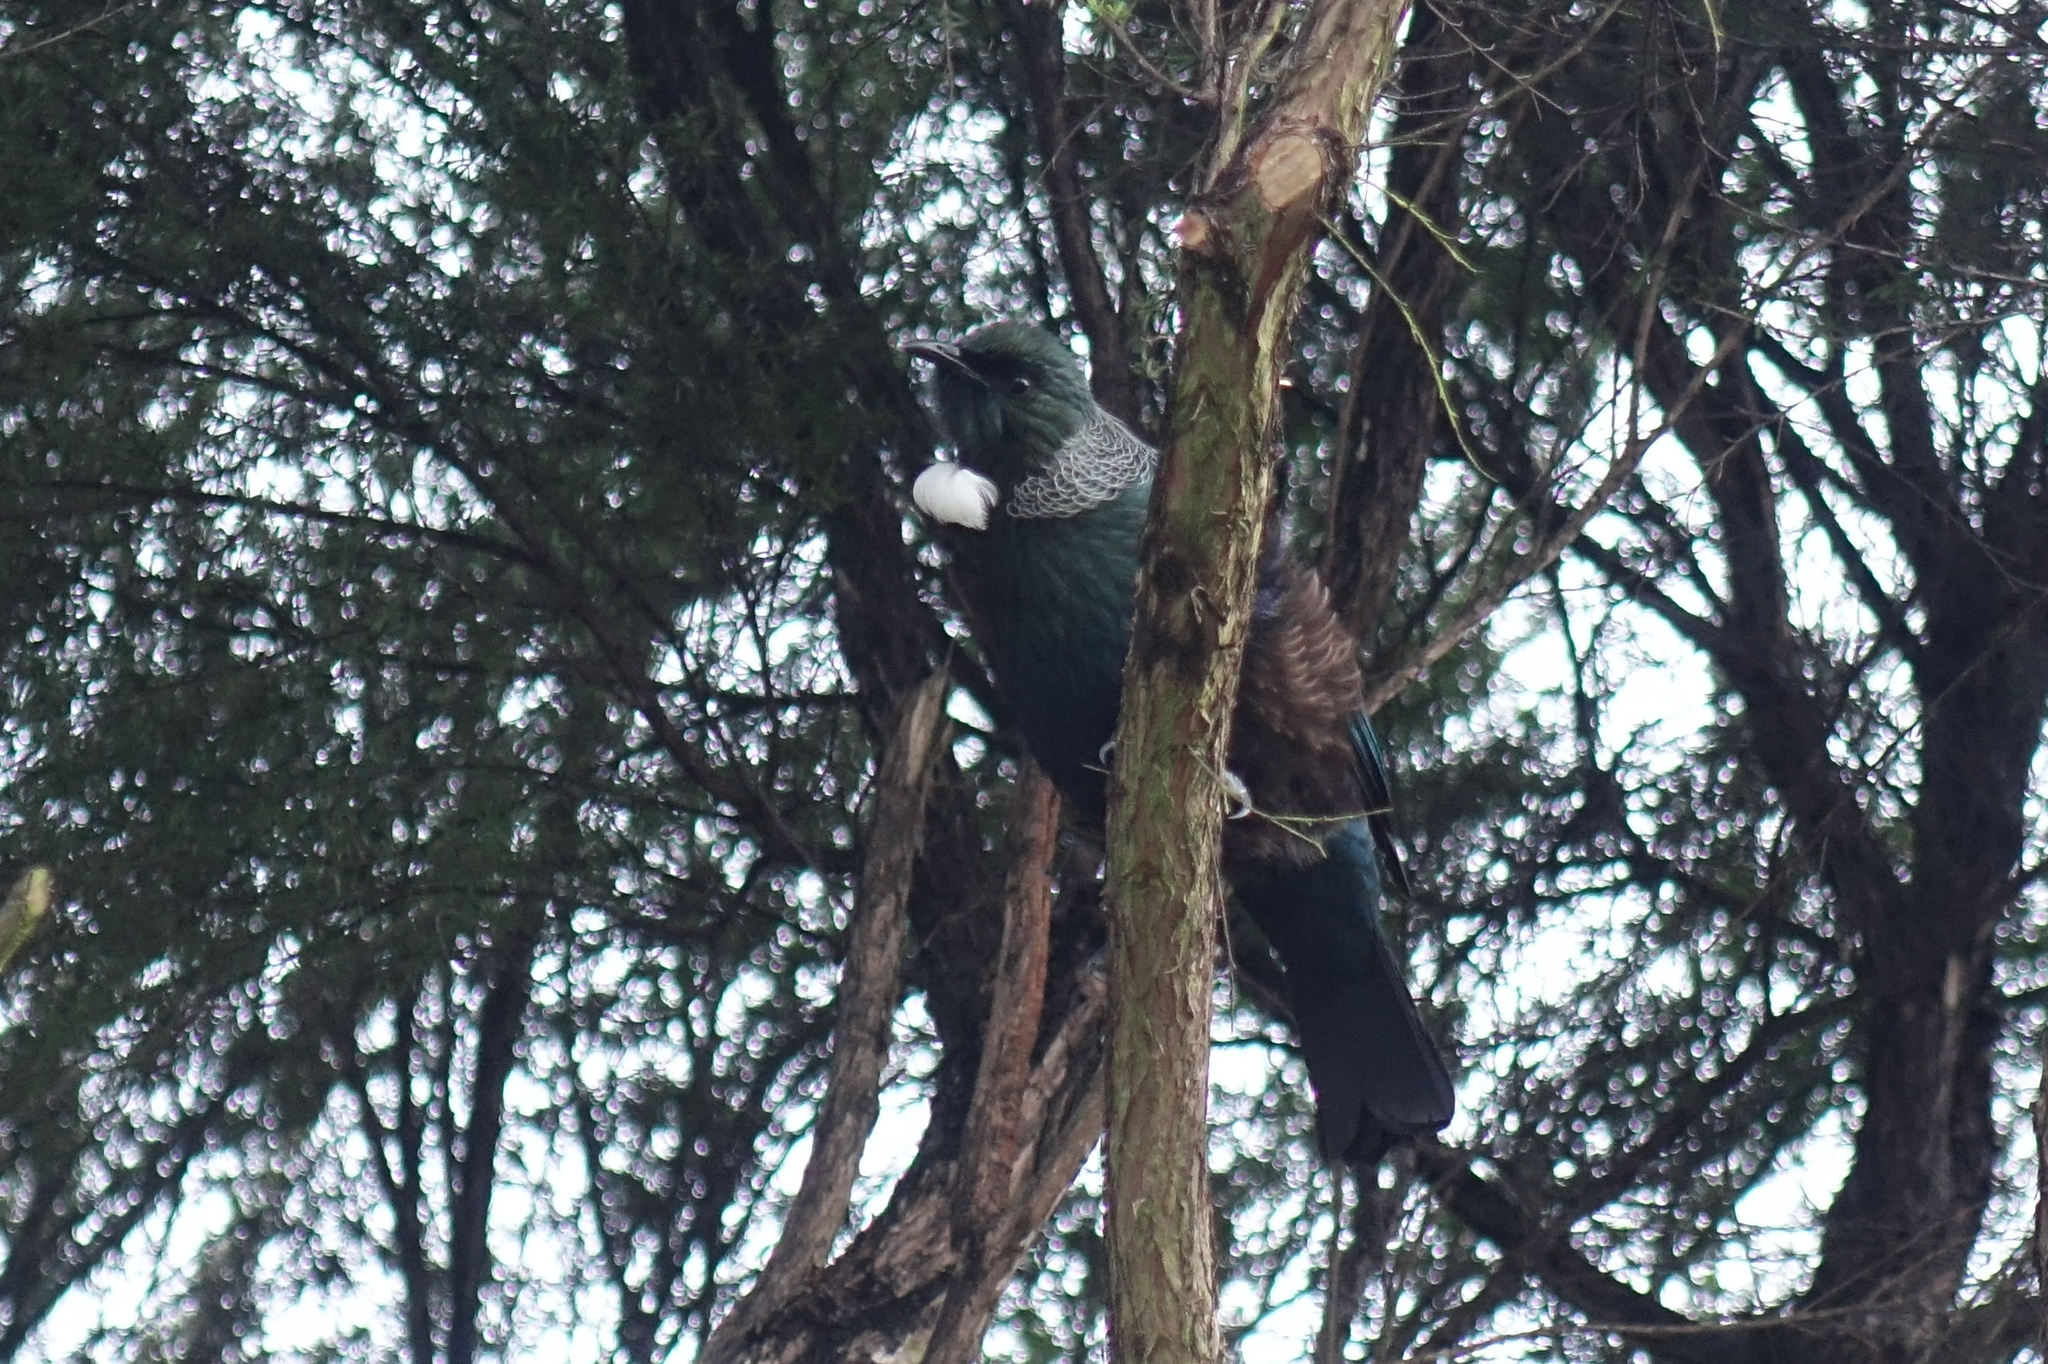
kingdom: Animalia
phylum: Chordata
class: Aves
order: Passeriformes
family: Meliphagidae
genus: Prosthemadera
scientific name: Prosthemadera novaeseelandiae
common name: Tui
